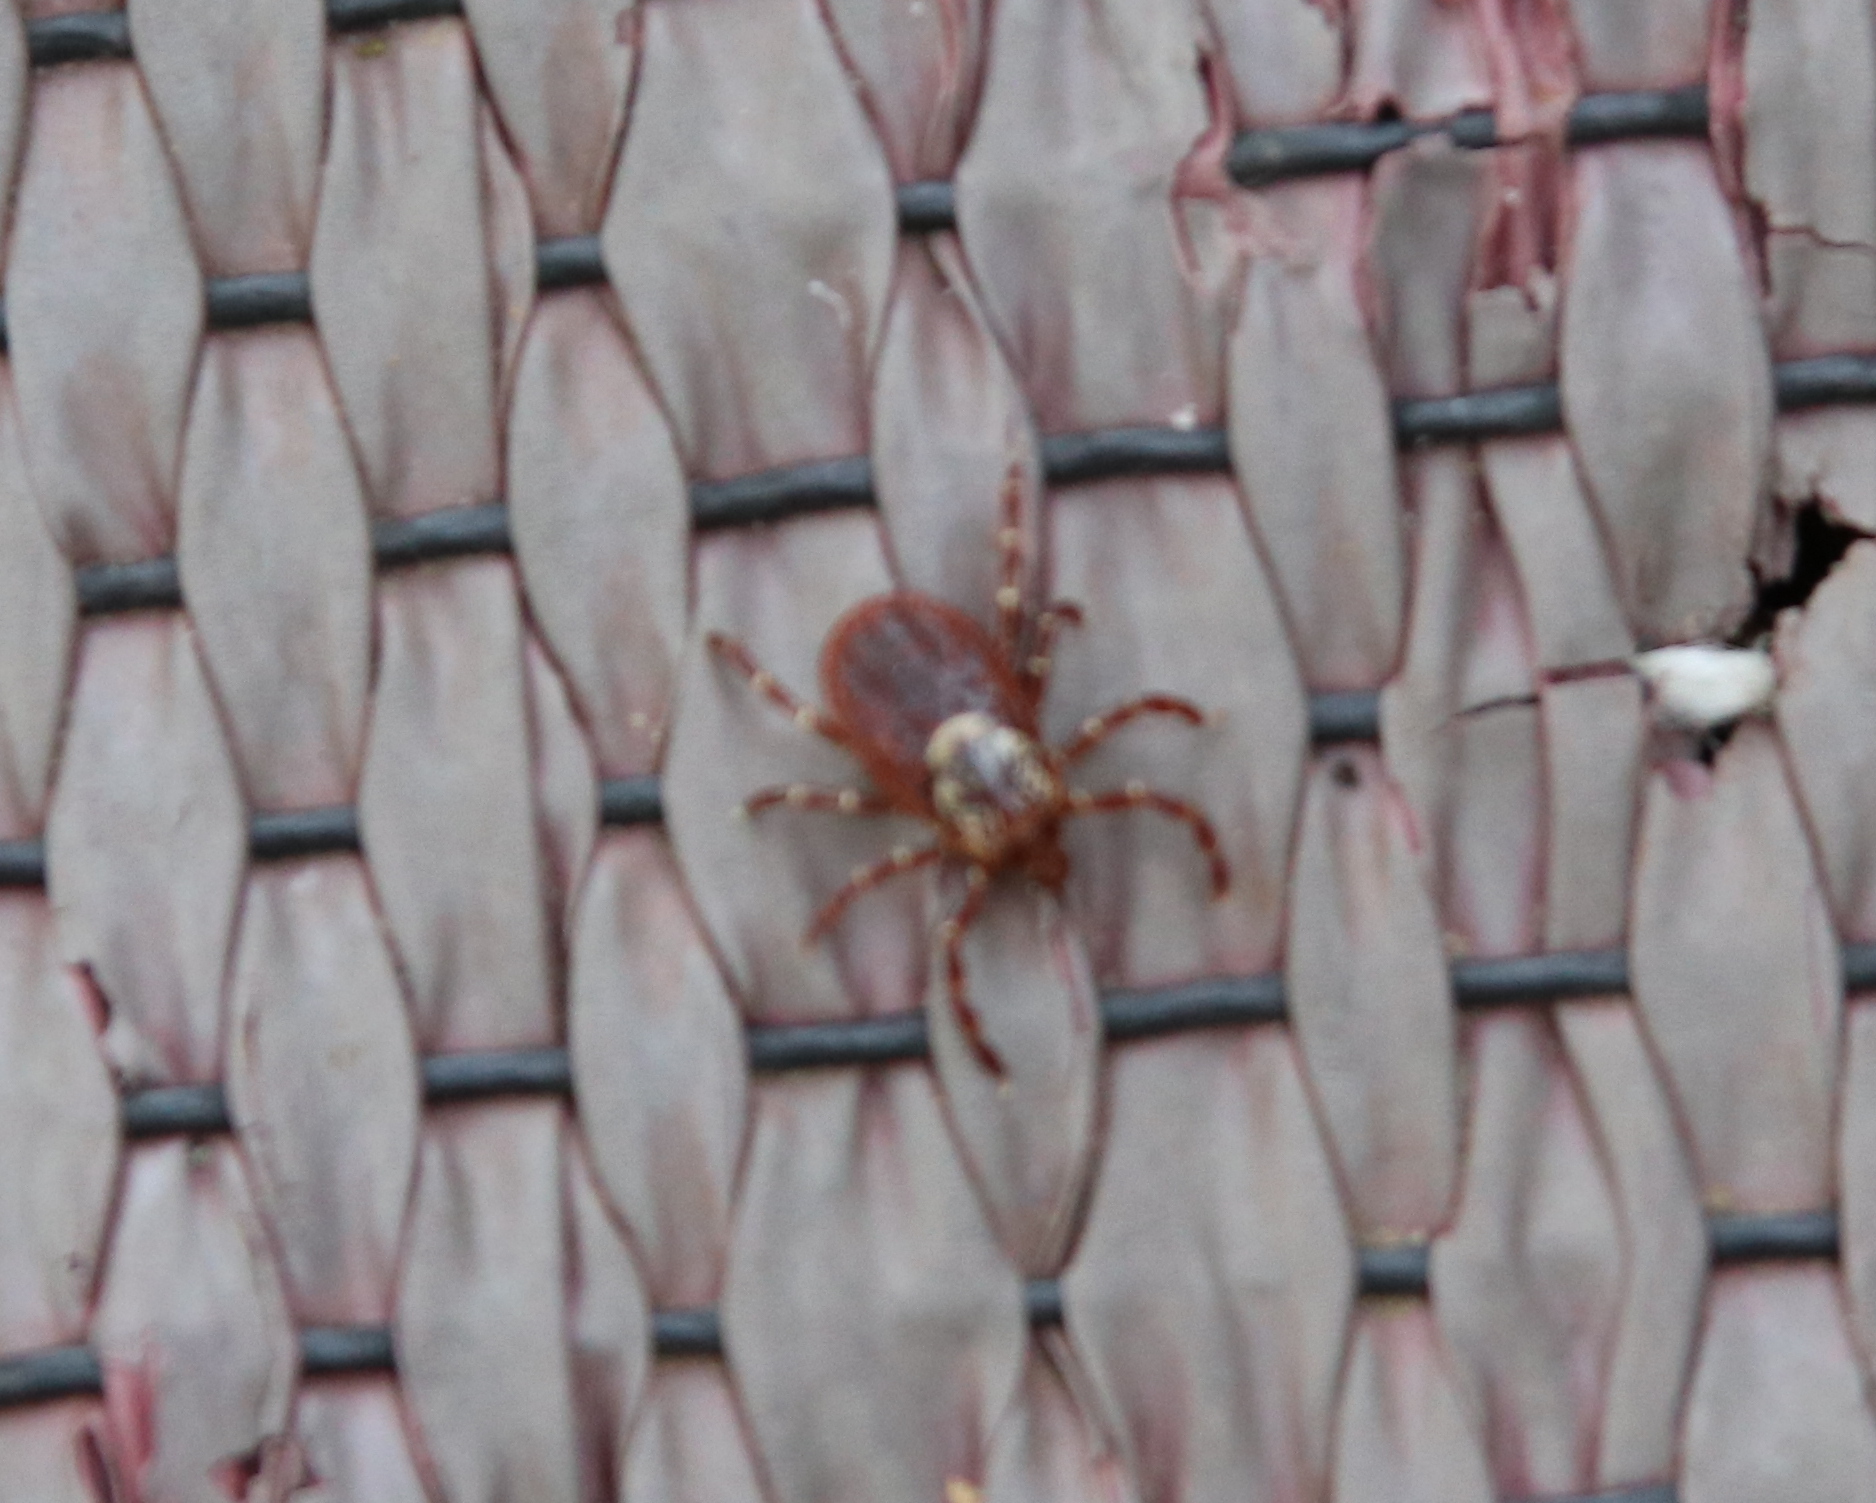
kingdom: Animalia
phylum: Arthropoda
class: Arachnida
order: Ixodida
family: Ixodidae
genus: Dermacentor
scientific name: Dermacentor variabilis
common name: American dog tick
